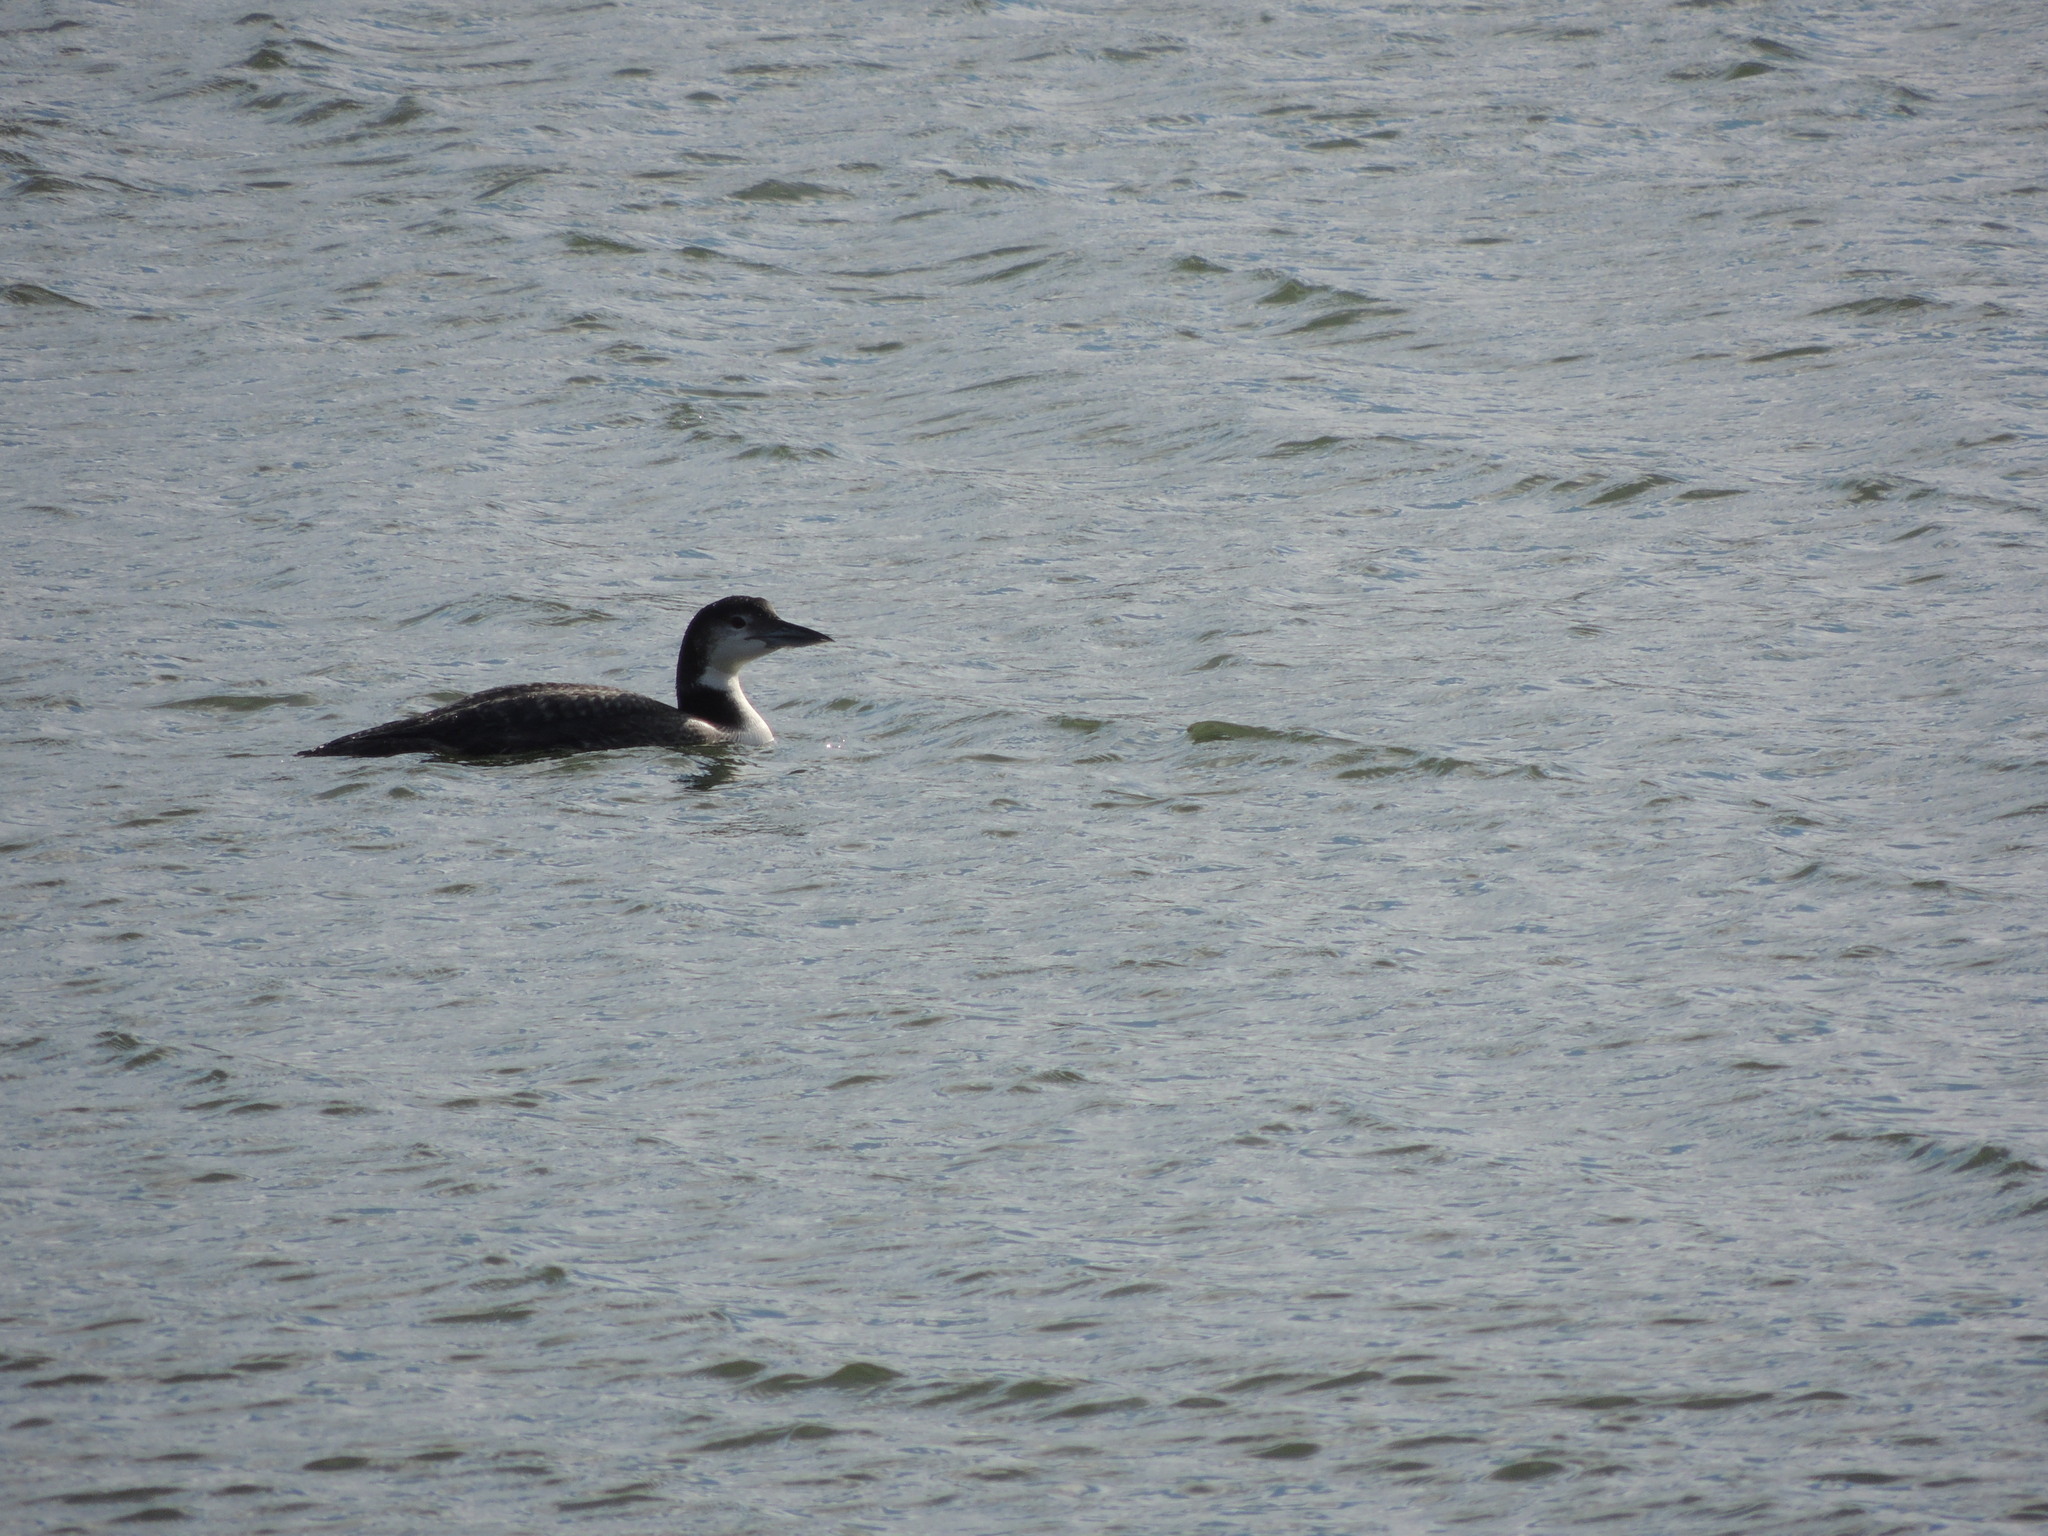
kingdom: Animalia
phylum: Chordata
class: Aves
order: Gaviiformes
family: Gaviidae
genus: Gavia
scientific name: Gavia immer
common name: Common loon
